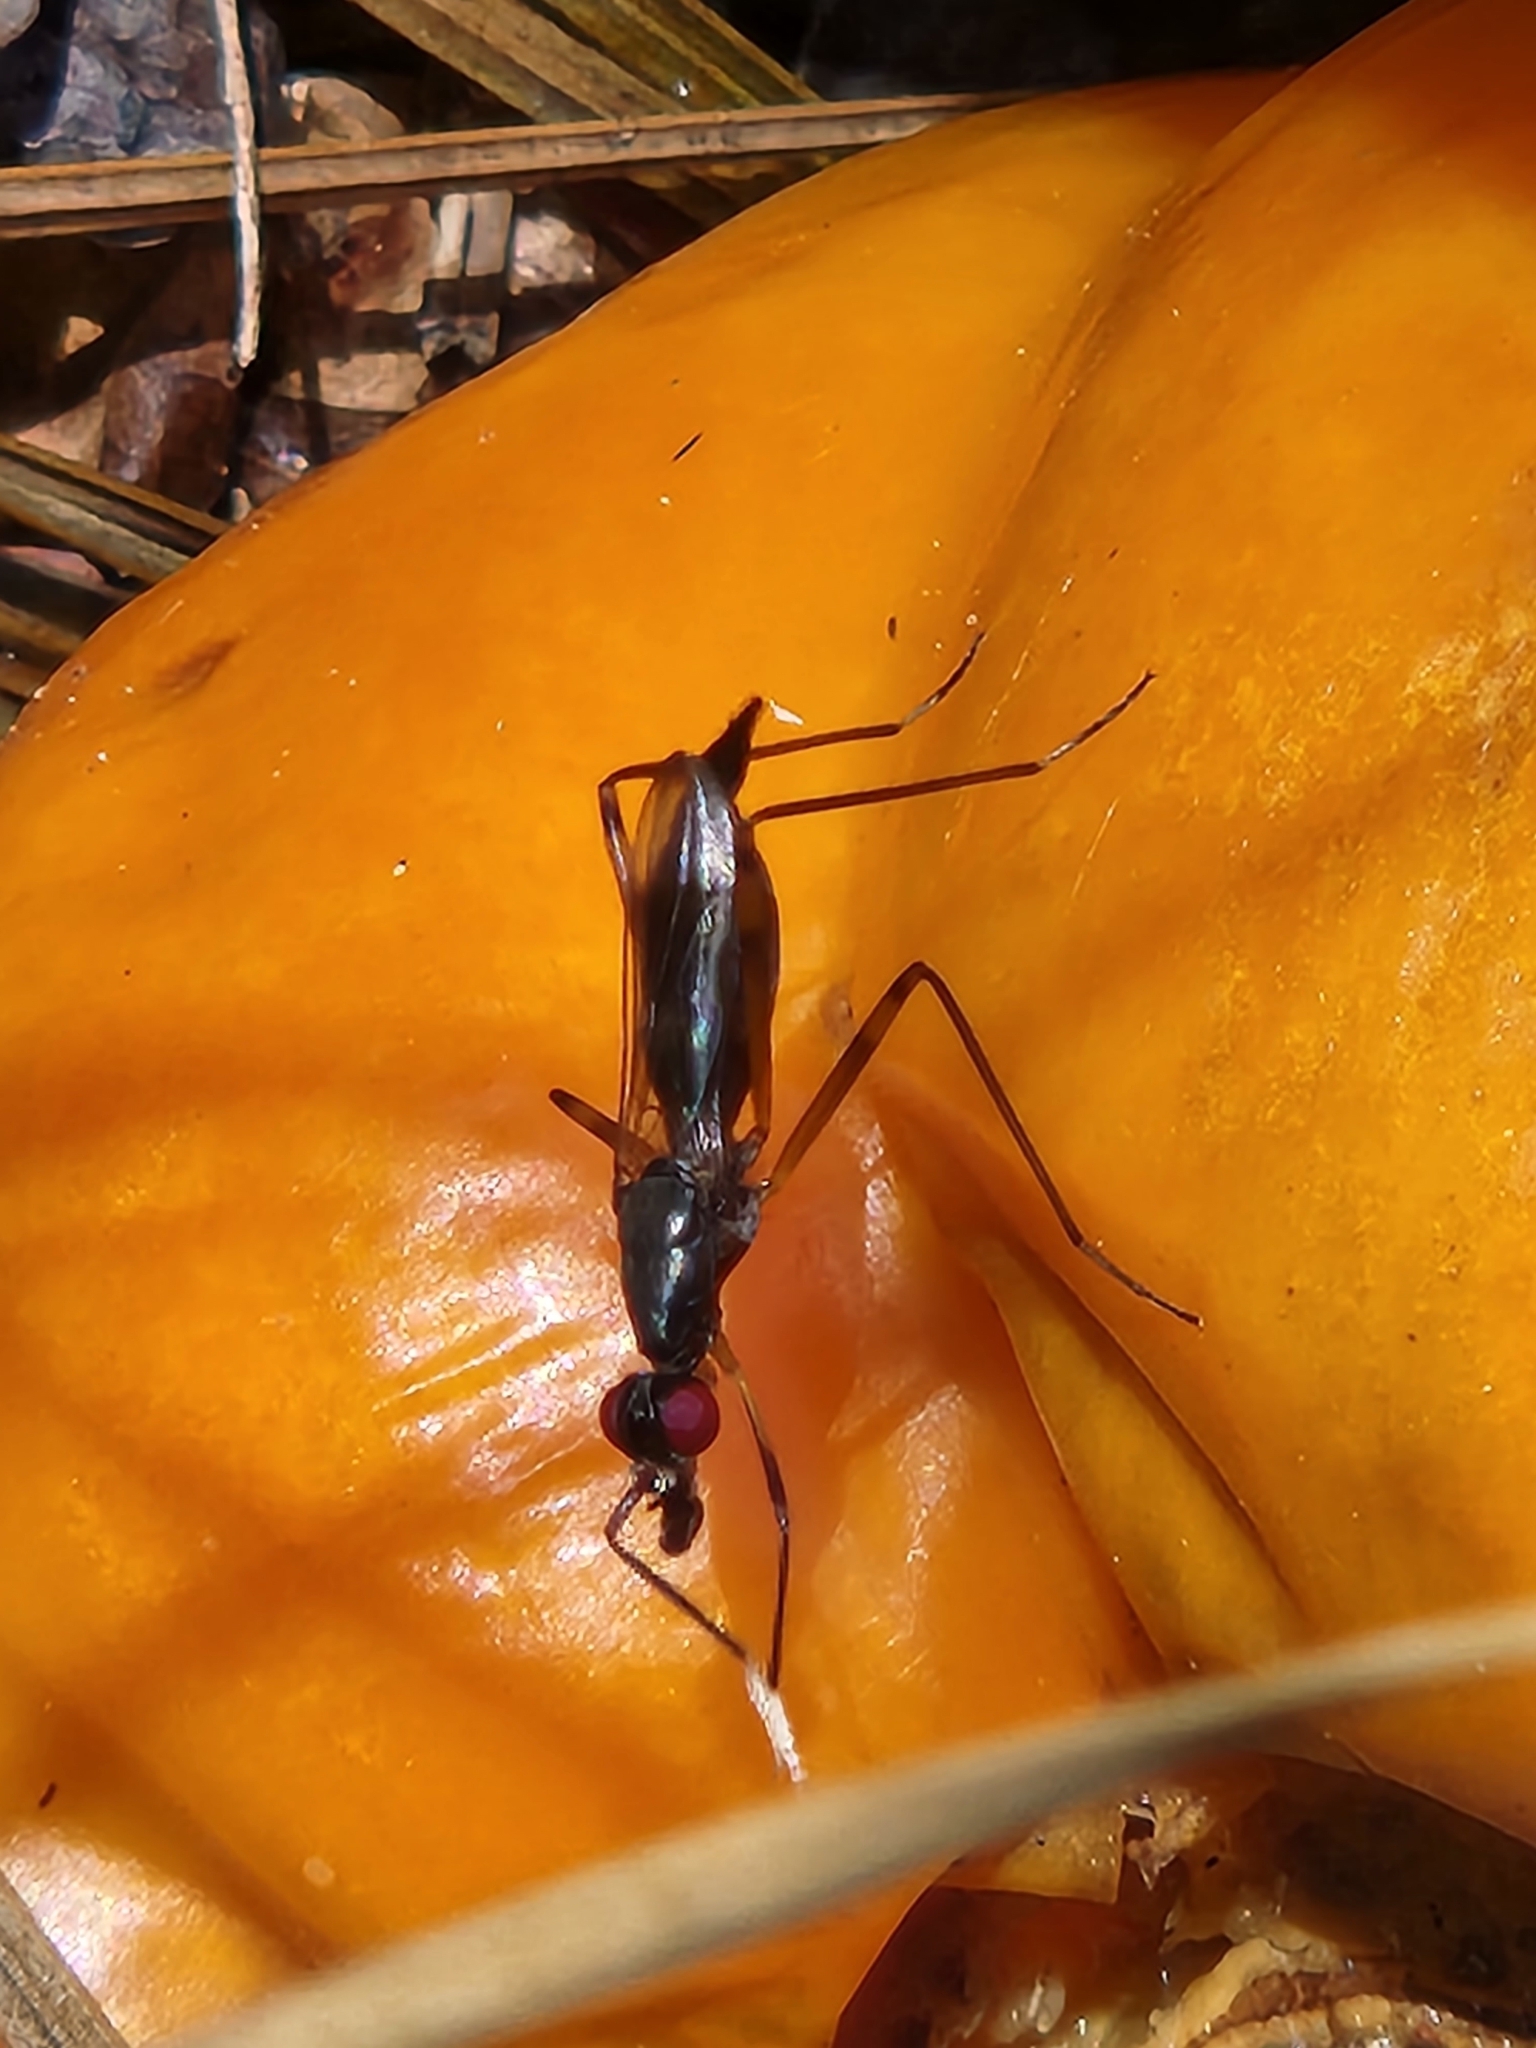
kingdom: Animalia
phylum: Arthropoda
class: Insecta
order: Diptera
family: Micropezidae
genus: Rainieria
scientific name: Rainieria antennaepes
